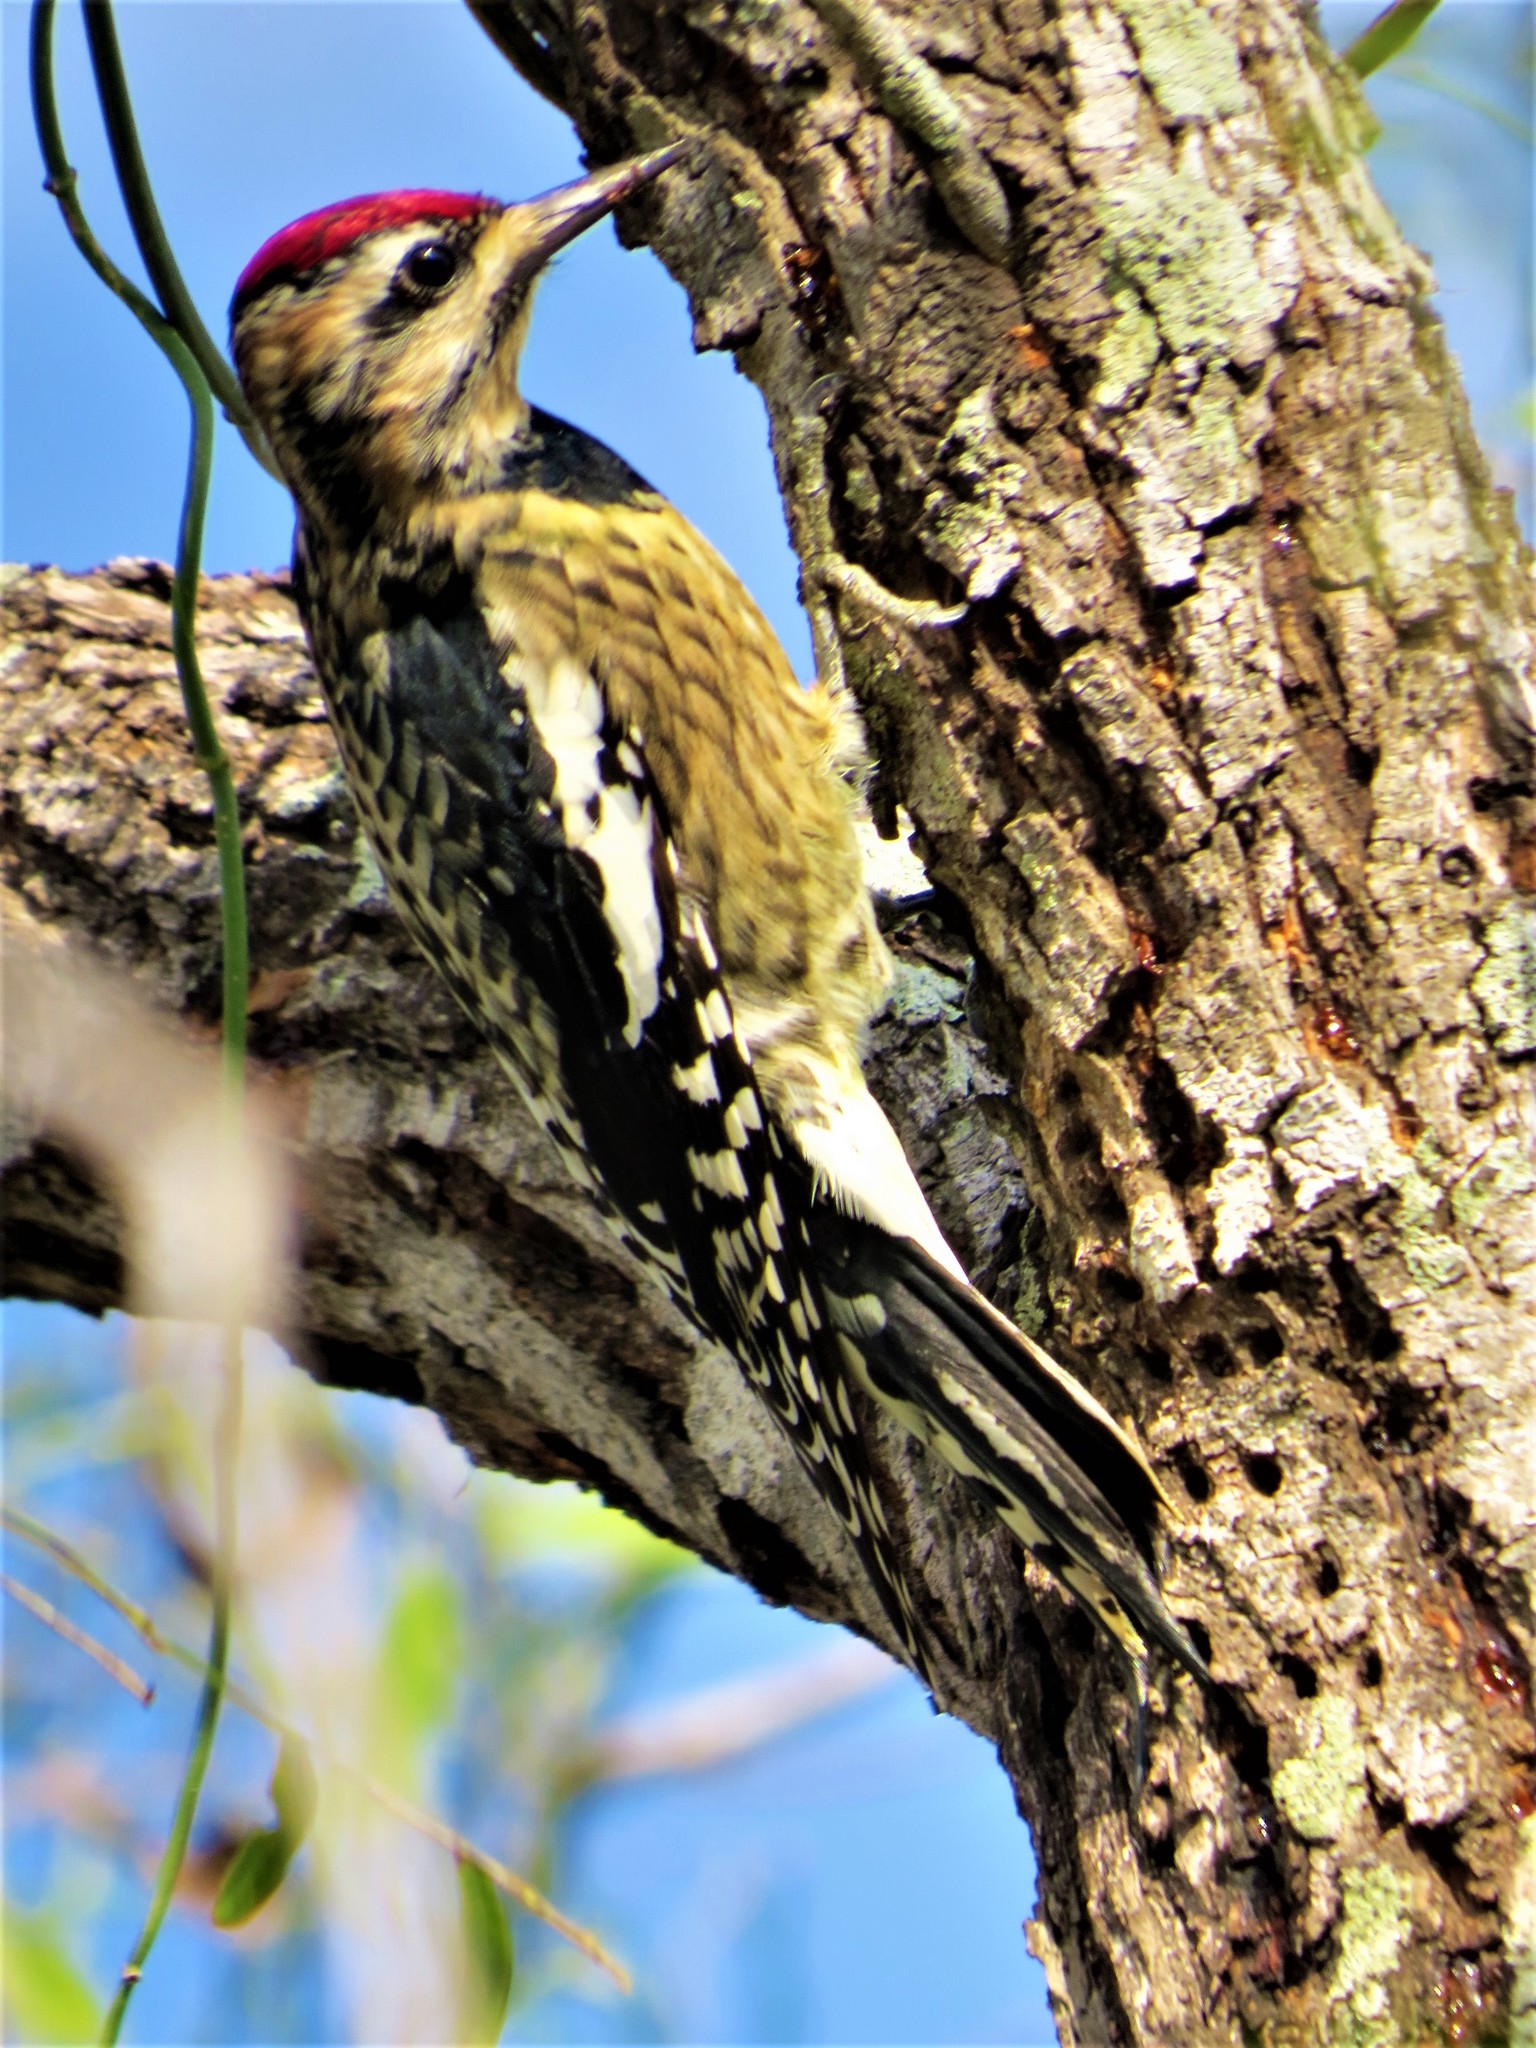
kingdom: Animalia
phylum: Chordata
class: Aves
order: Piciformes
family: Picidae
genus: Sphyrapicus
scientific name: Sphyrapicus varius
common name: Yellow-bellied sapsucker
